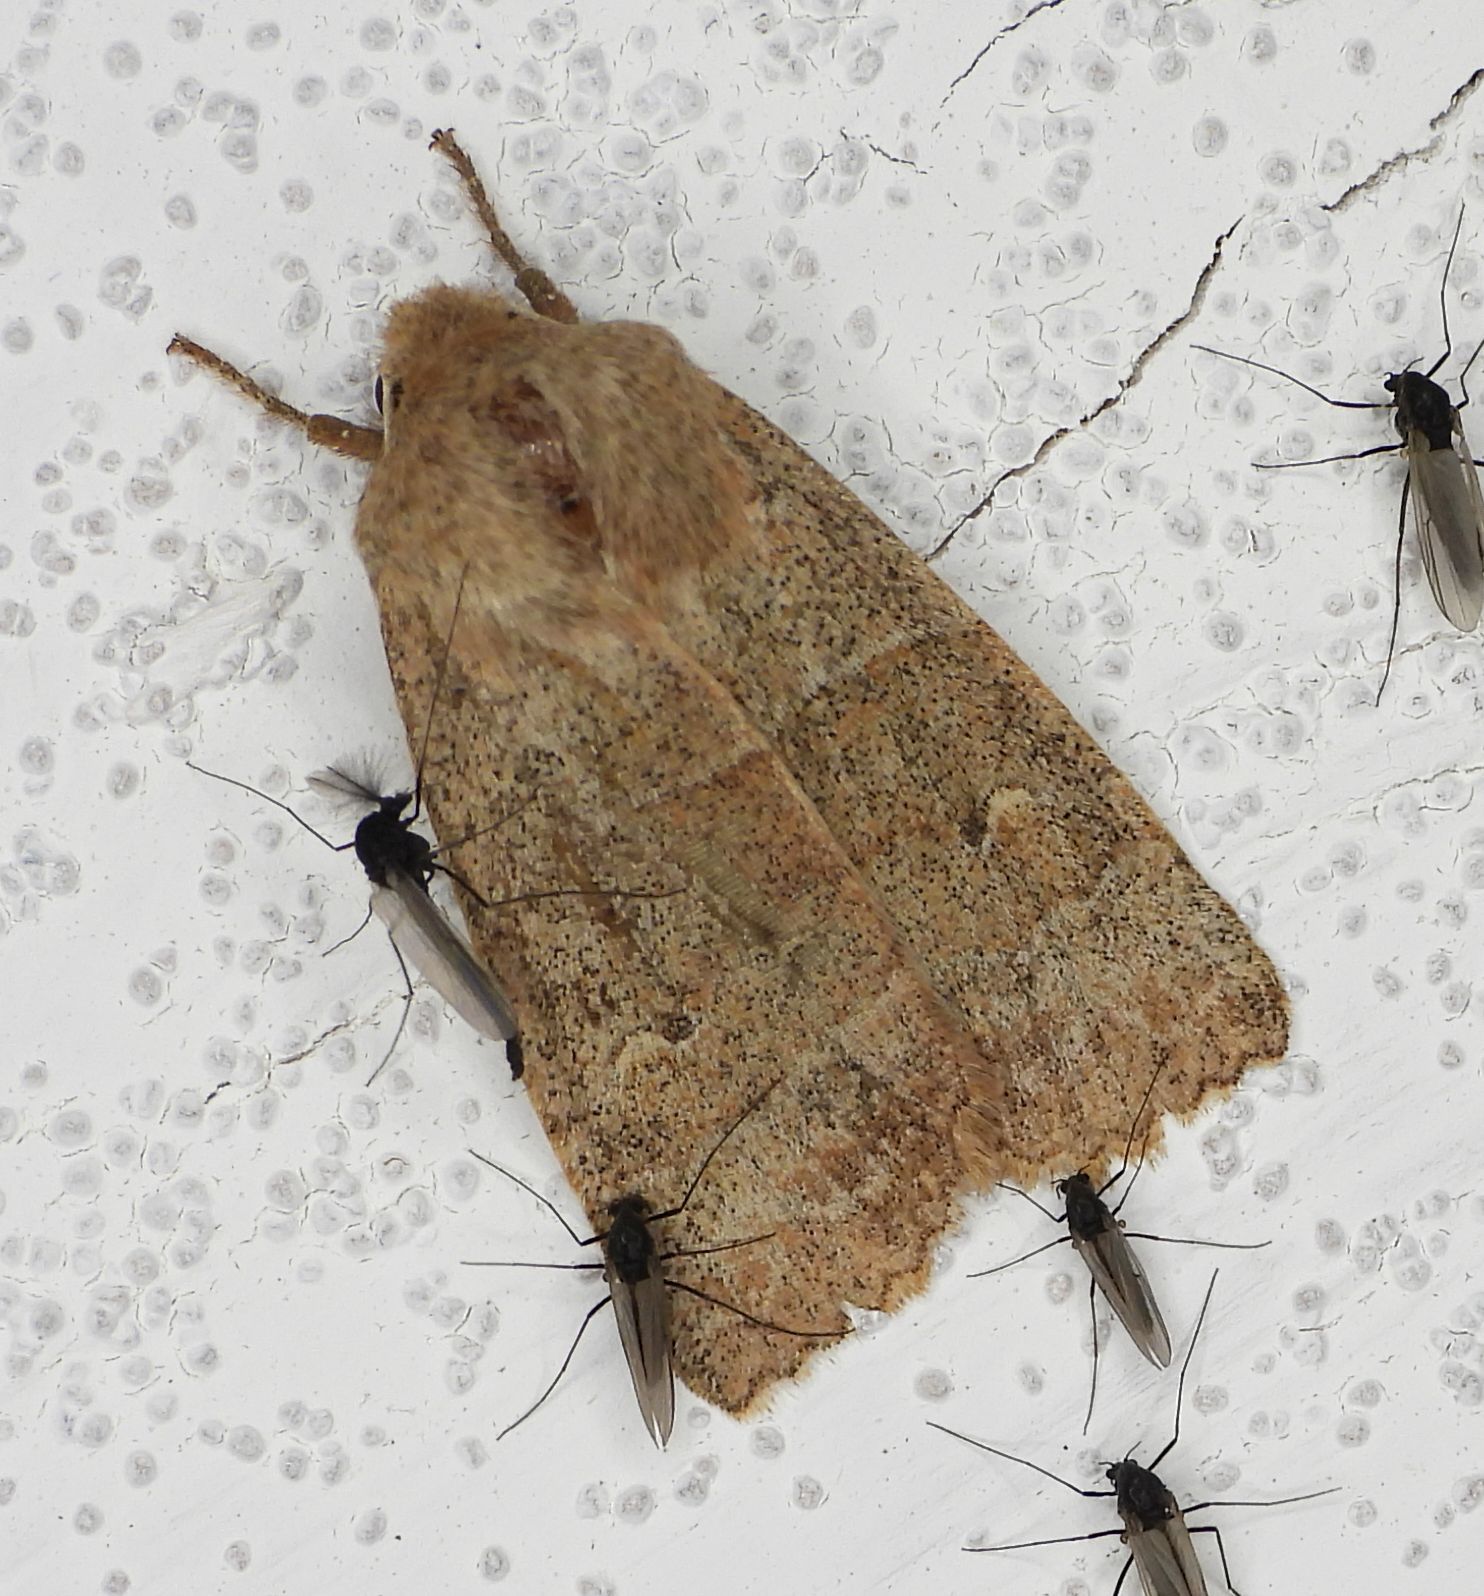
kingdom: Animalia
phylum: Arthropoda
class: Insecta
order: Lepidoptera
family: Noctuidae
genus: Eupsilia
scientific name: Eupsilia morrisoni
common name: Morrison's sallow
